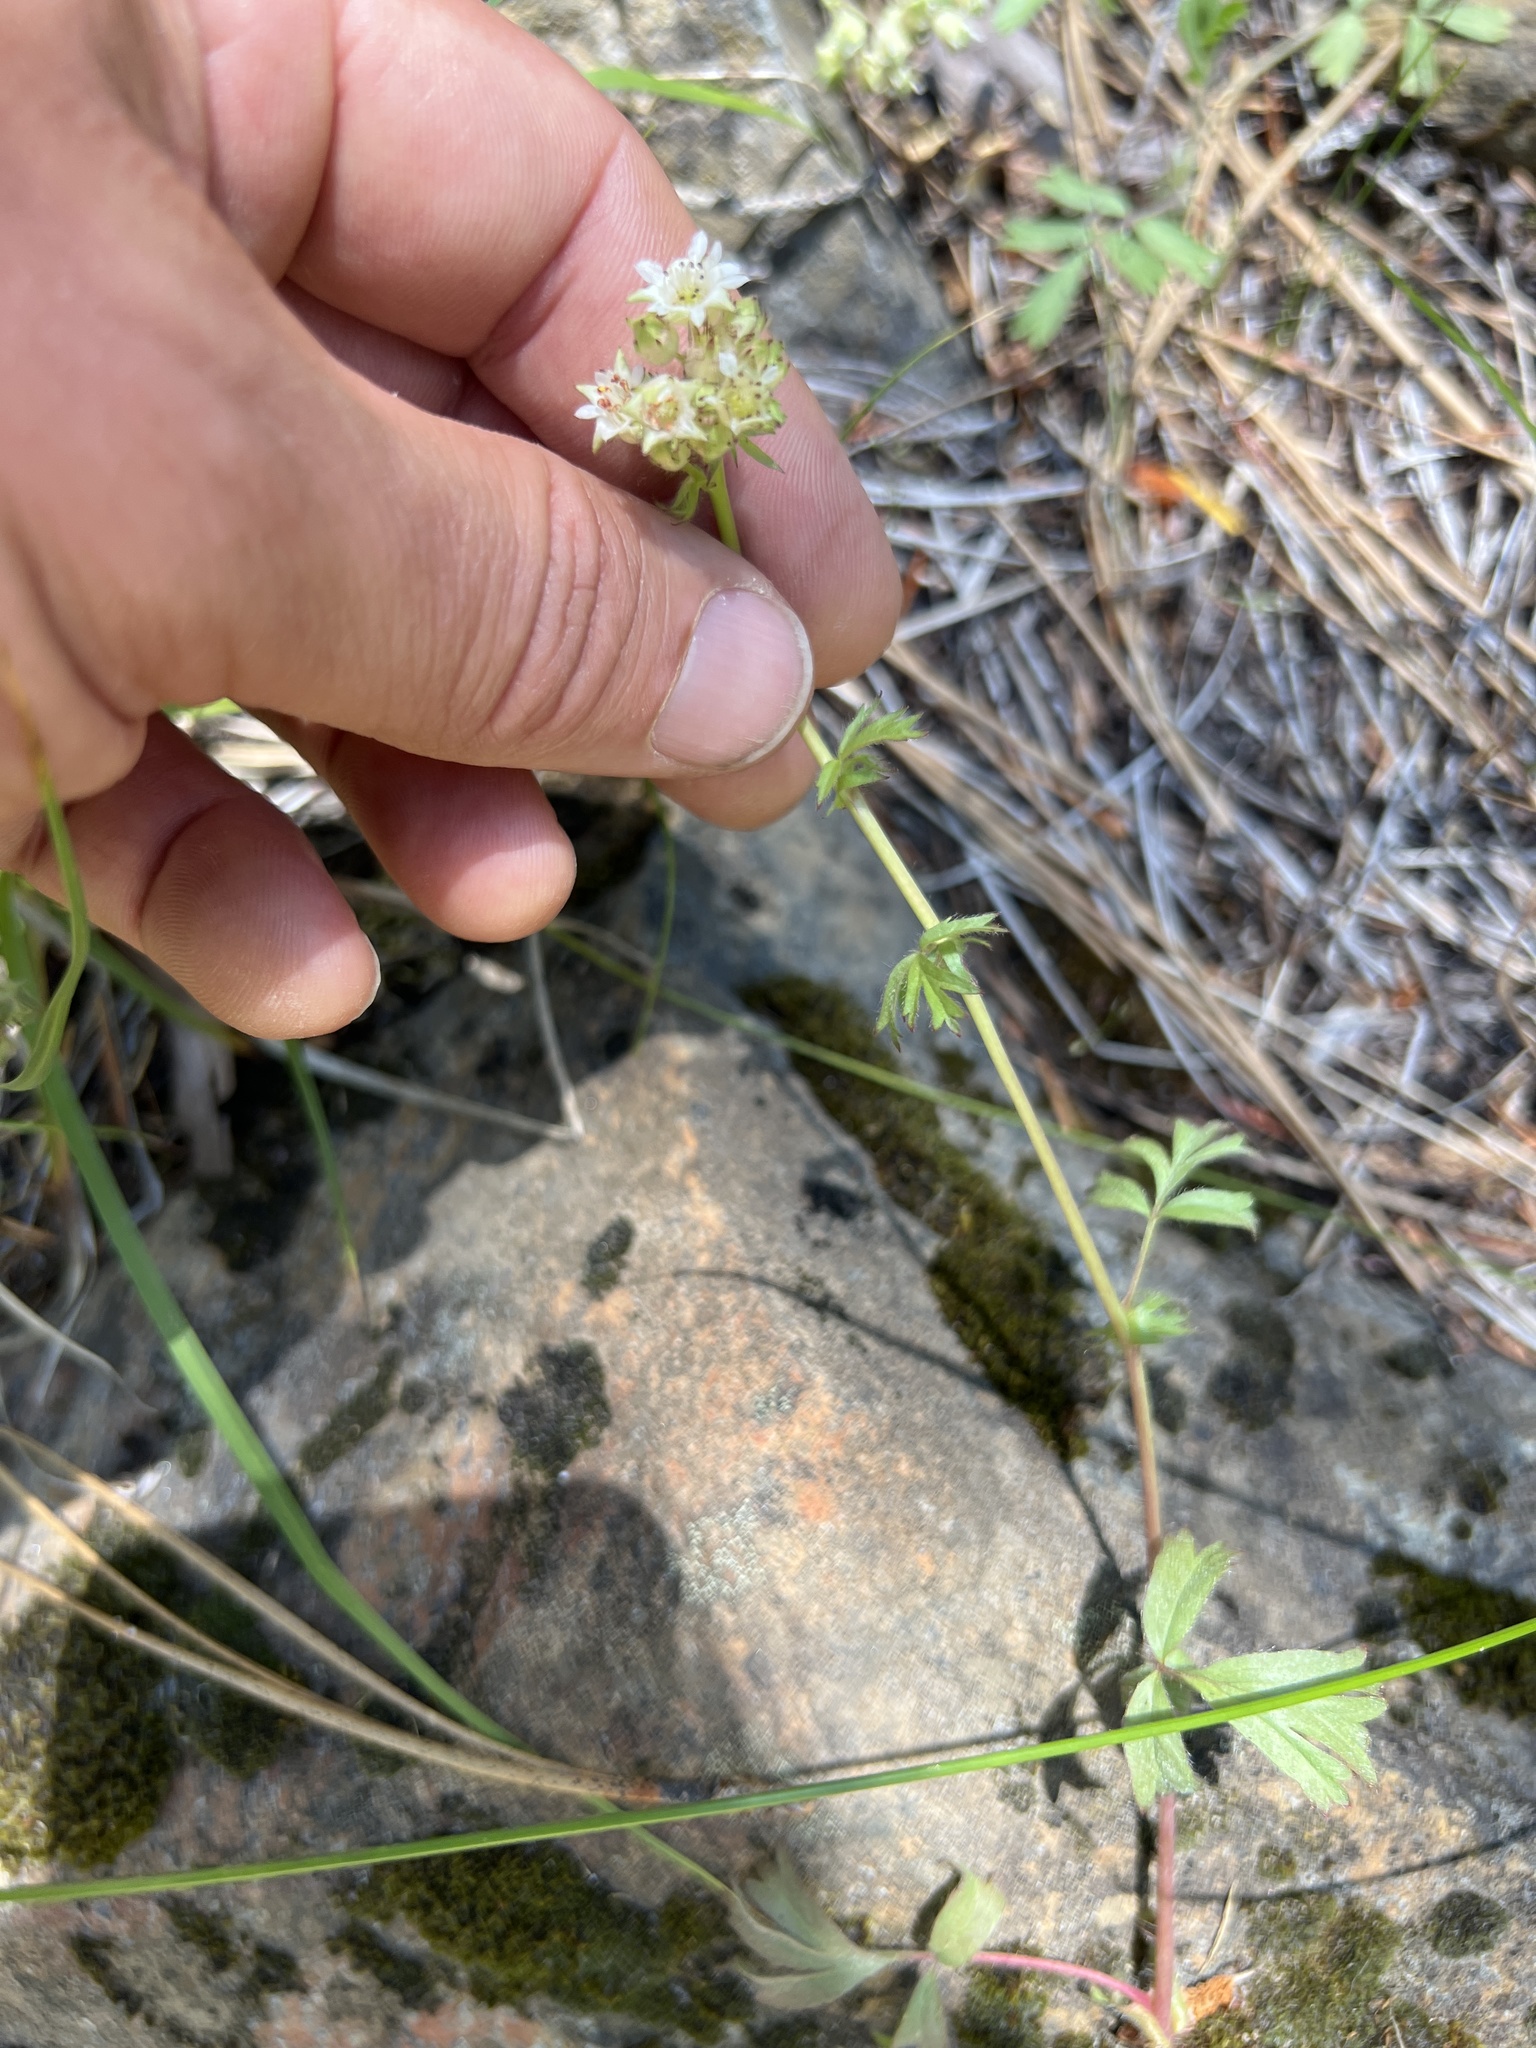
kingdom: Plantae
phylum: Tracheophyta
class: Magnoliopsida
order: Ericales
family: Primulaceae
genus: Dodecatheon
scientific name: Dodecatheon hendersonii
